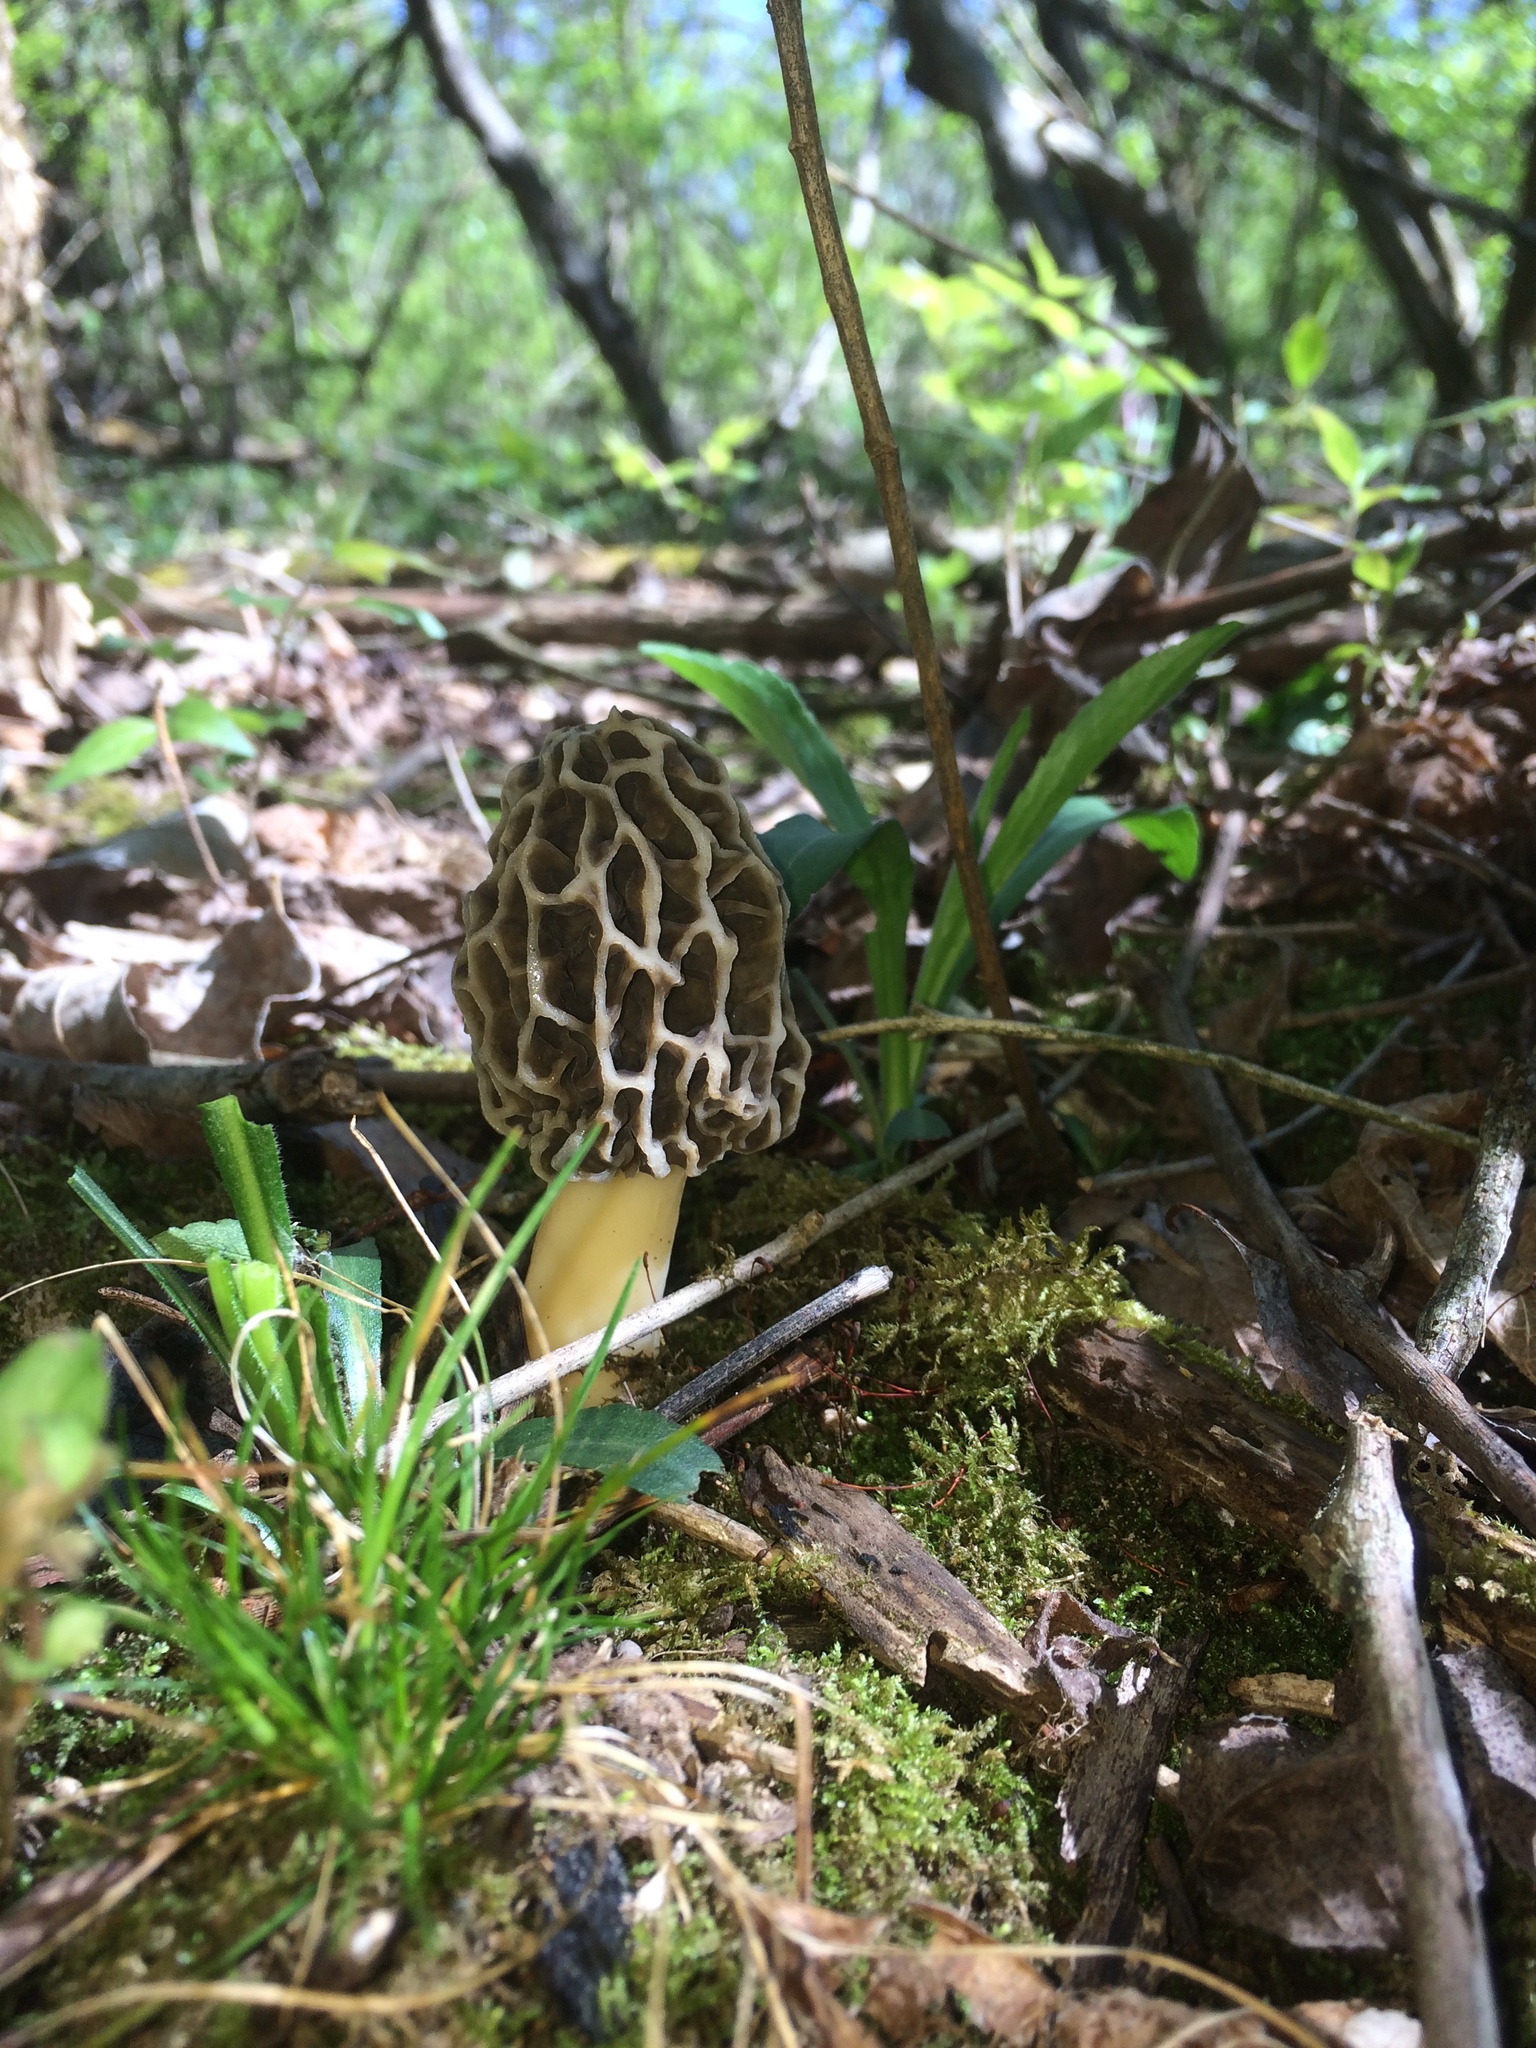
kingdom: Fungi
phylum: Ascomycota
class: Pezizomycetes
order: Pezizales
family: Morchellaceae
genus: Morchella
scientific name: Morchella americana
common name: White morel
